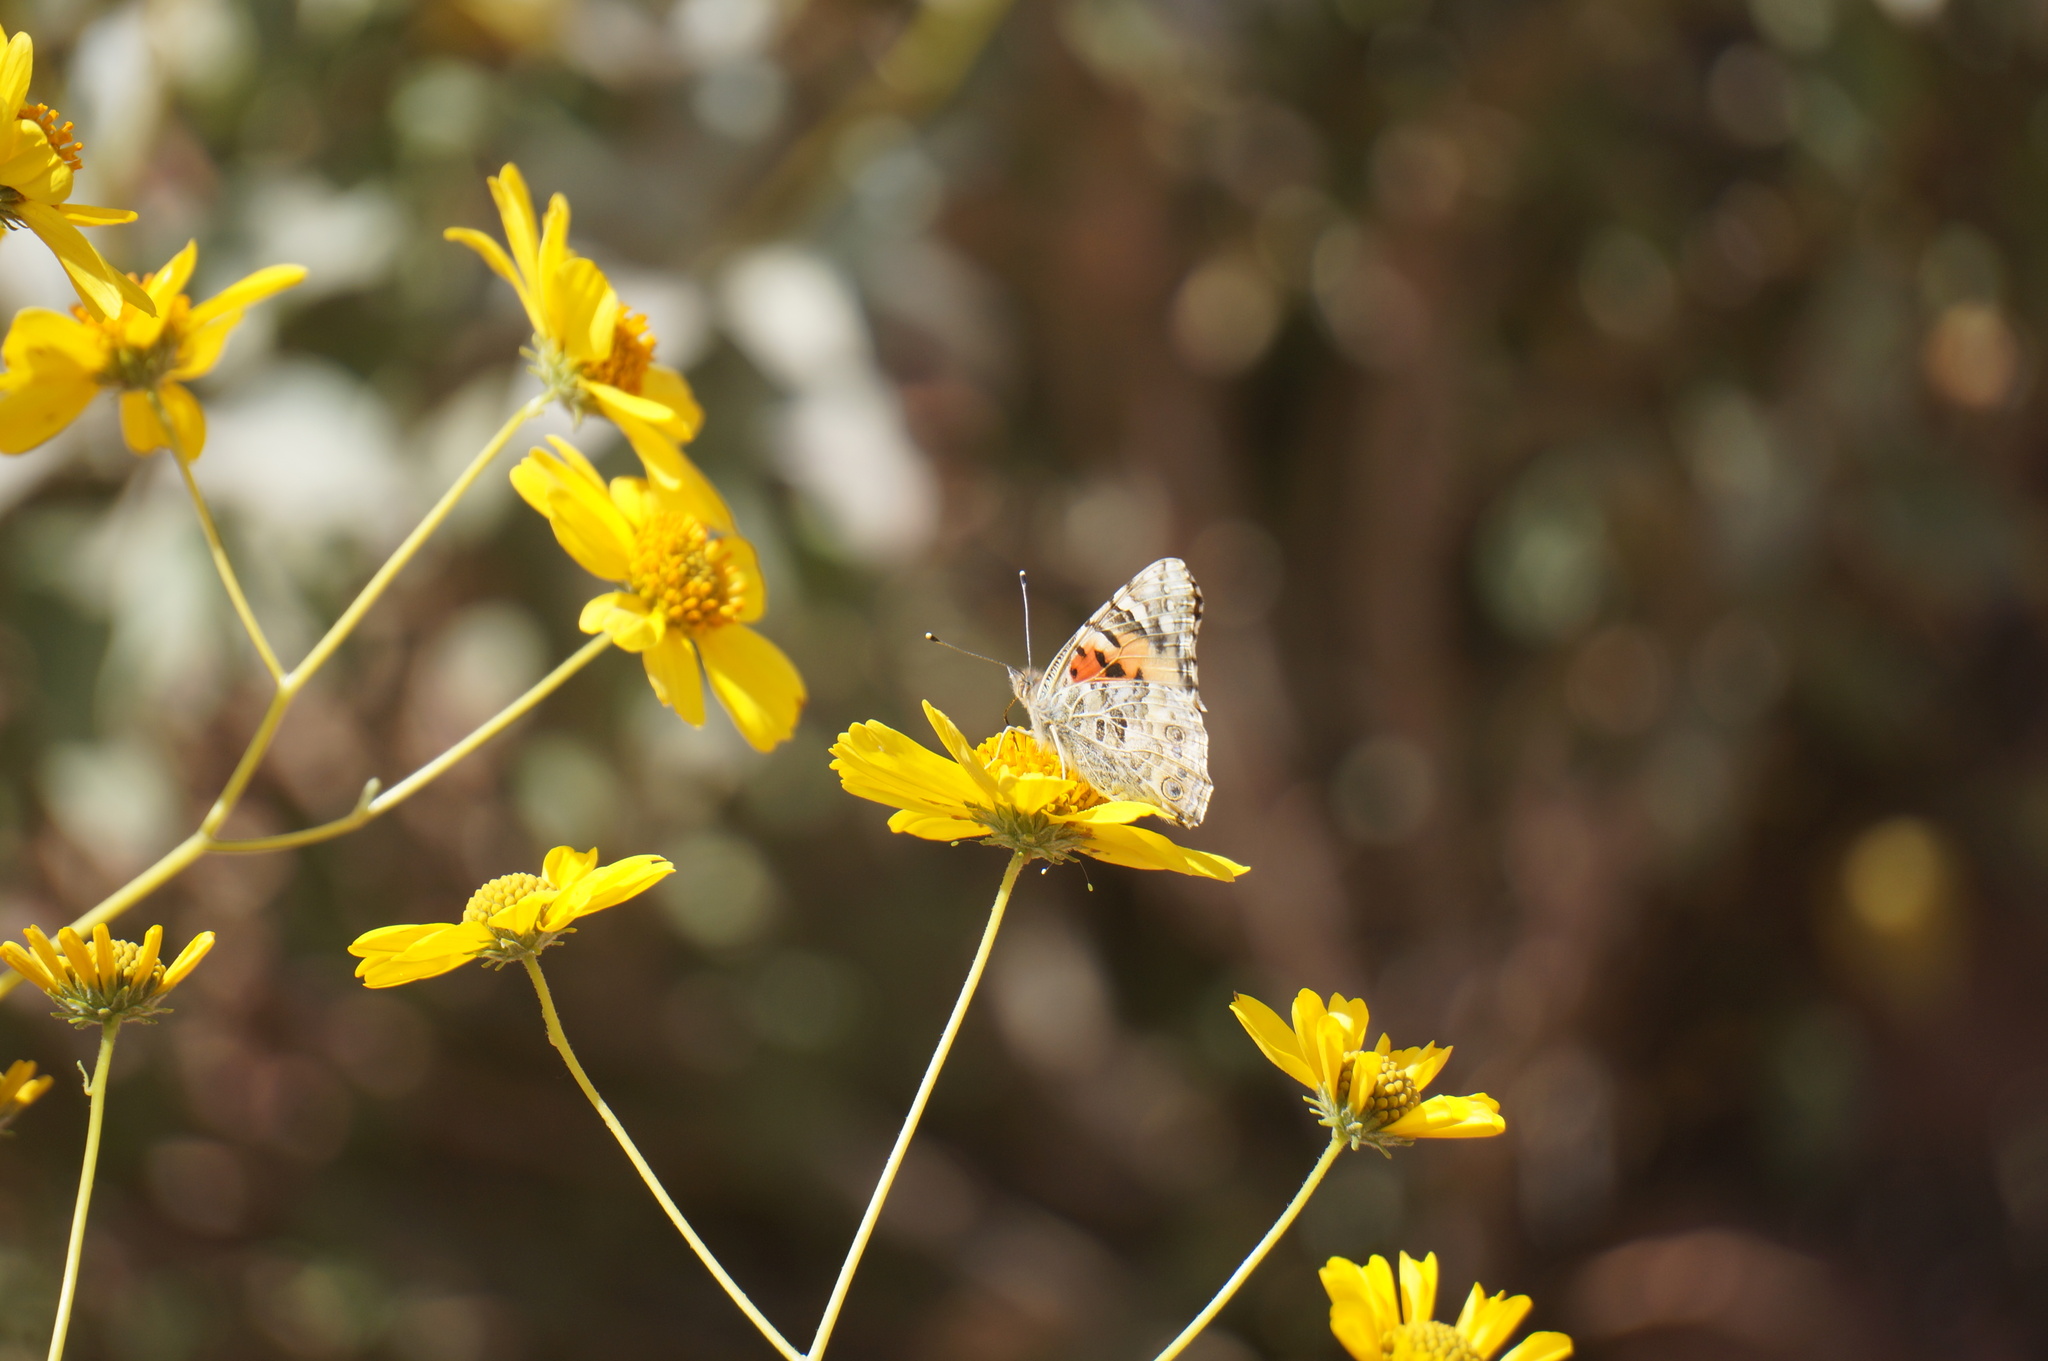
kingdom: Animalia
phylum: Arthropoda
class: Insecta
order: Lepidoptera
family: Nymphalidae
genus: Vanessa
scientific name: Vanessa cardui
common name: Painted lady
